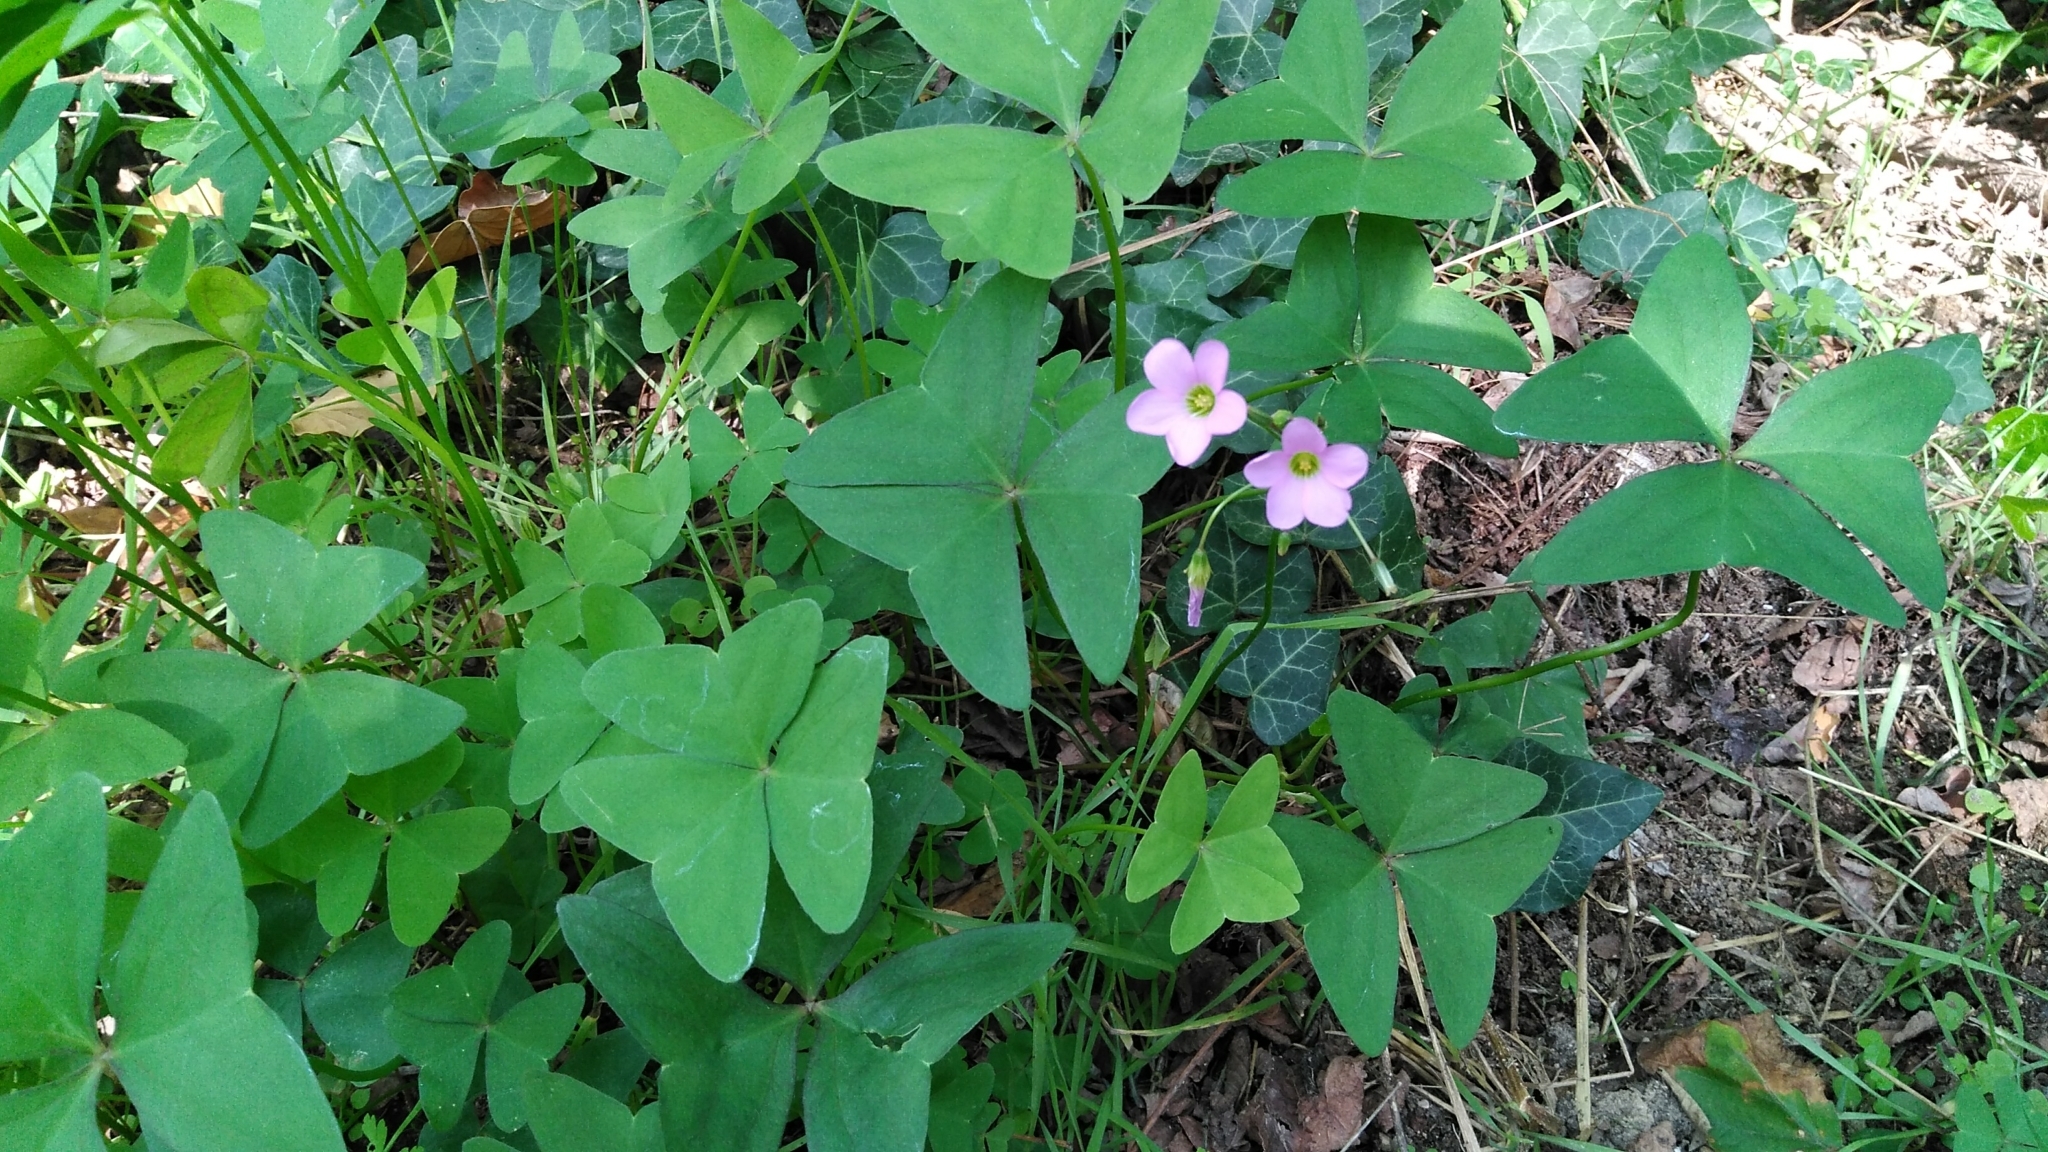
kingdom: Plantae
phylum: Tracheophyta
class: Magnoliopsida
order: Oxalidales
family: Oxalidaceae
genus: Oxalis
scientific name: Oxalis latifolia
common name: Garden pink-sorrel
